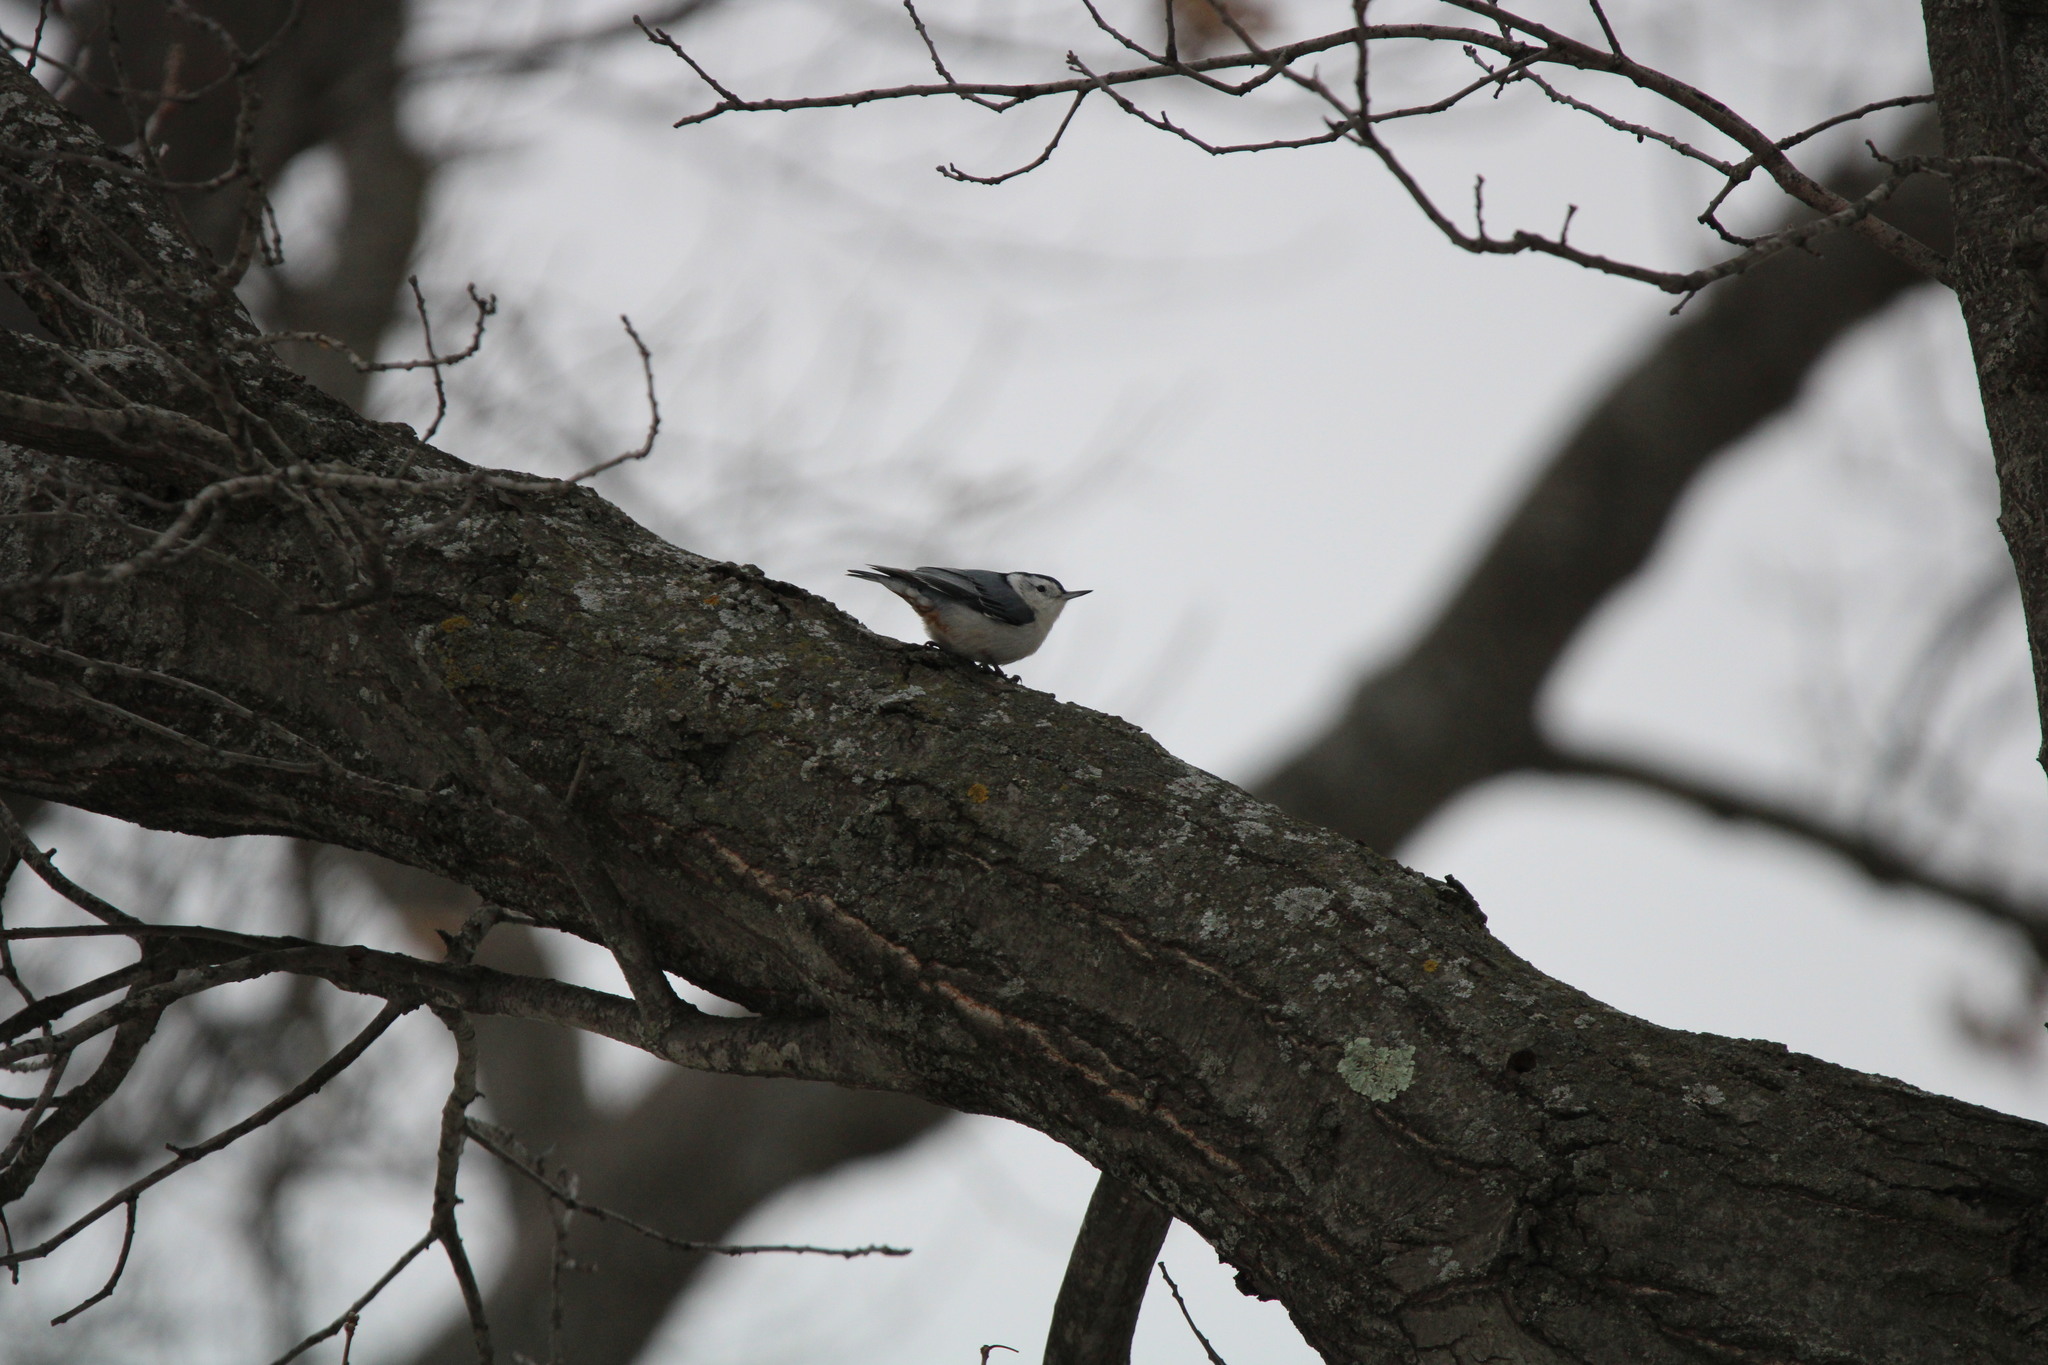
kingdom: Animalia
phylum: Chordata
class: Aves
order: Passeriformes
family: Sittidae
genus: Sitta
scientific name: Sitta carolinensis
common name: White-breasted nuthatch
